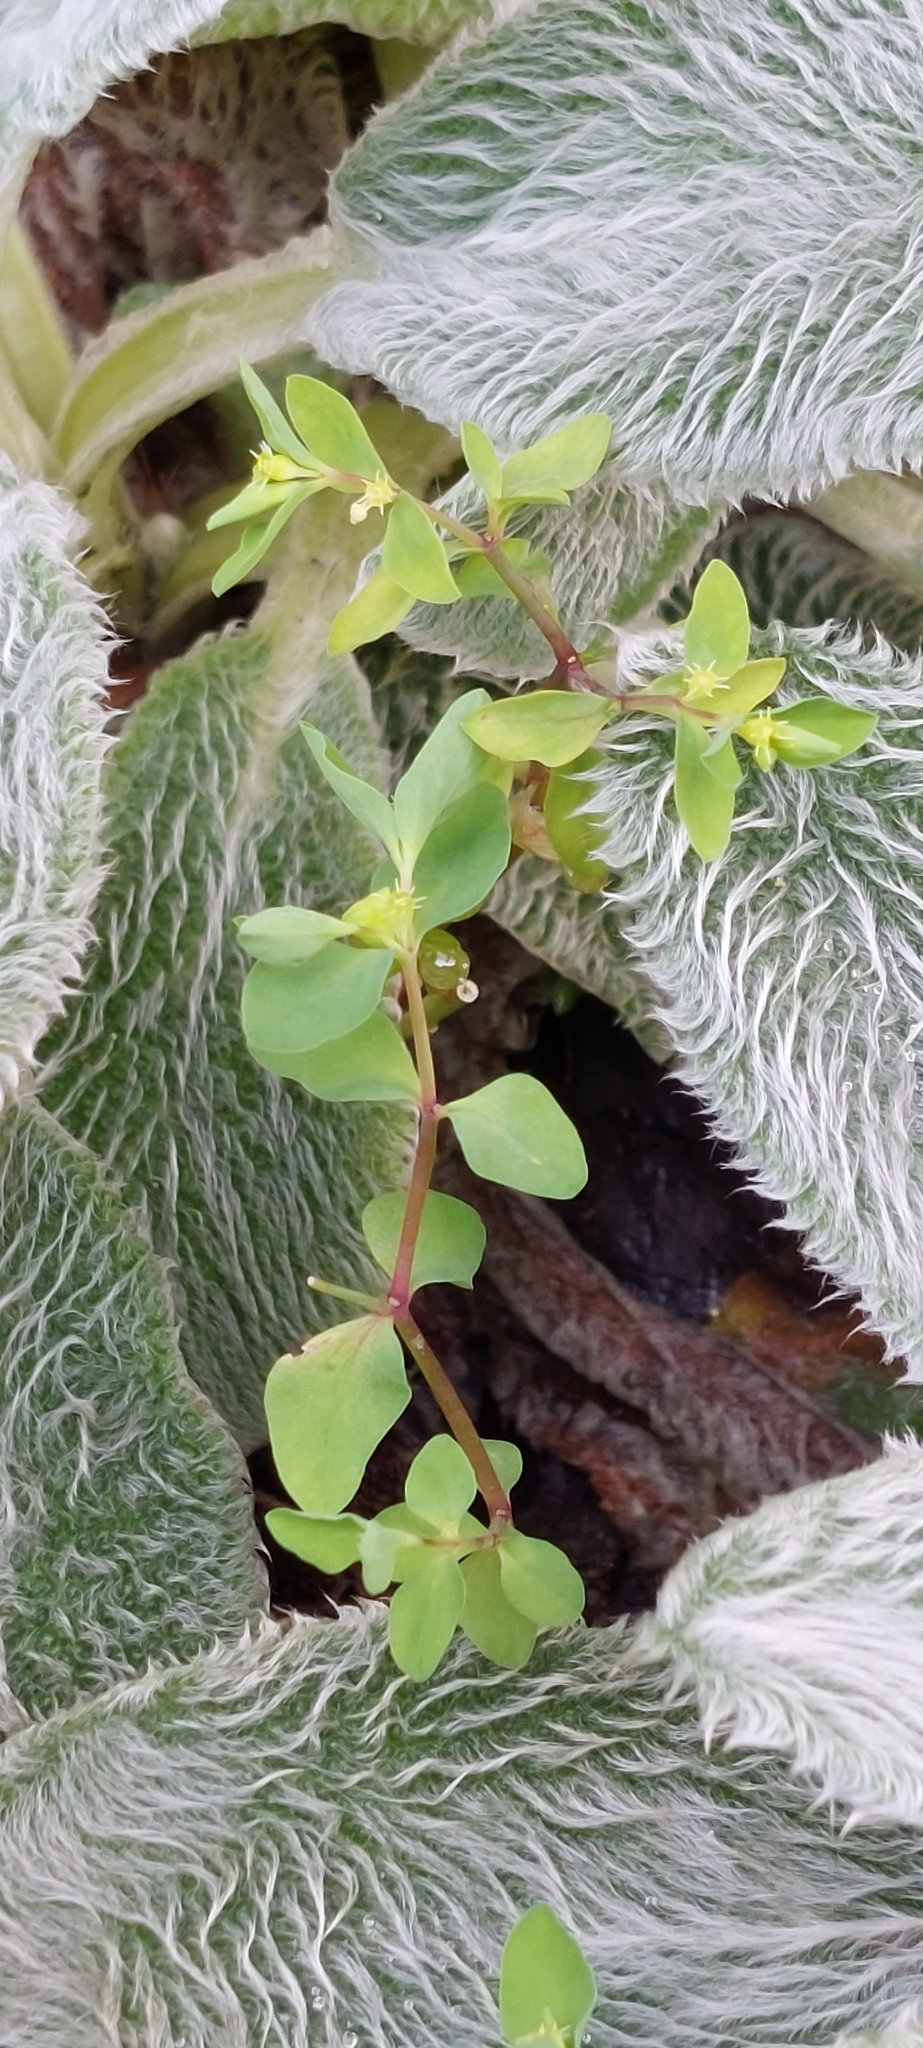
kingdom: Plantae
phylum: Tracheophyta
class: Magnoliopsida
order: Malpighiales
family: Euphorbiaceae
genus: Euphorbia
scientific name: Euphorbia peplus
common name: Petty spurge
